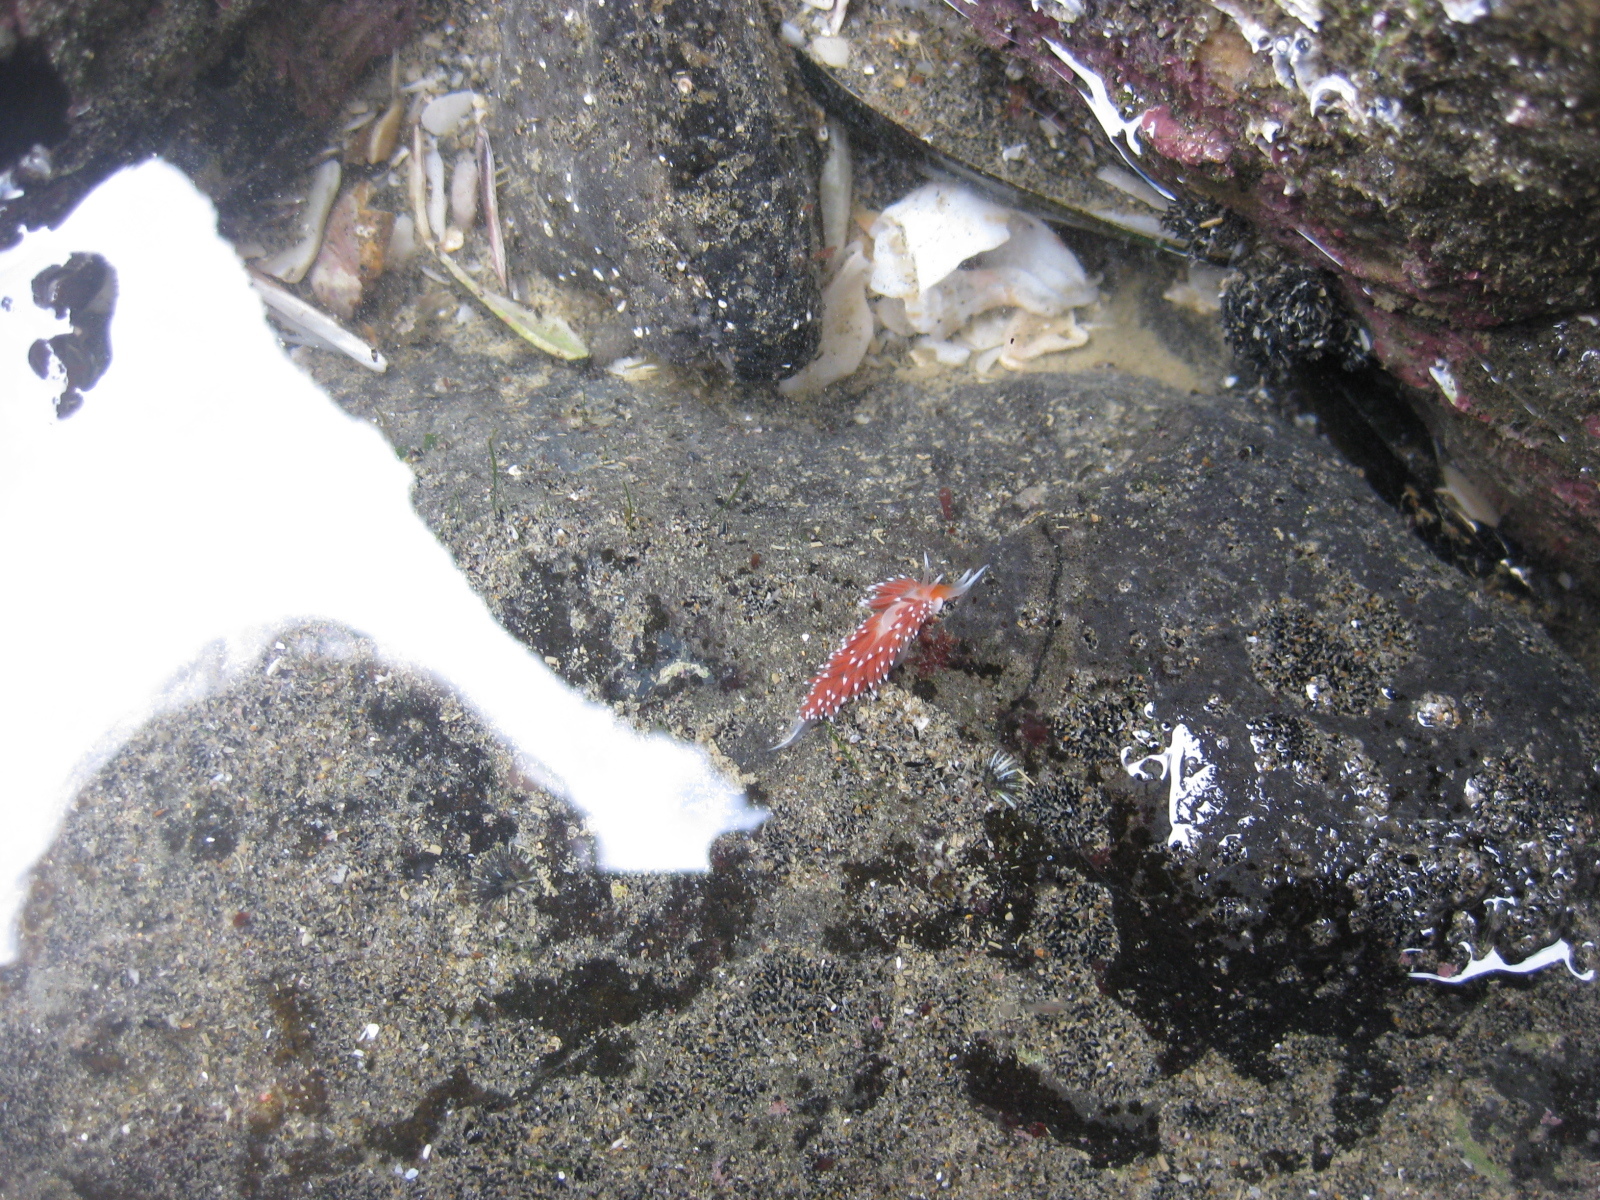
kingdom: Animalia
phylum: Mollusca
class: Gastropoda
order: Nudibranchia
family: Facelinidae
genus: Phidiana
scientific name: Phidiana milleri
